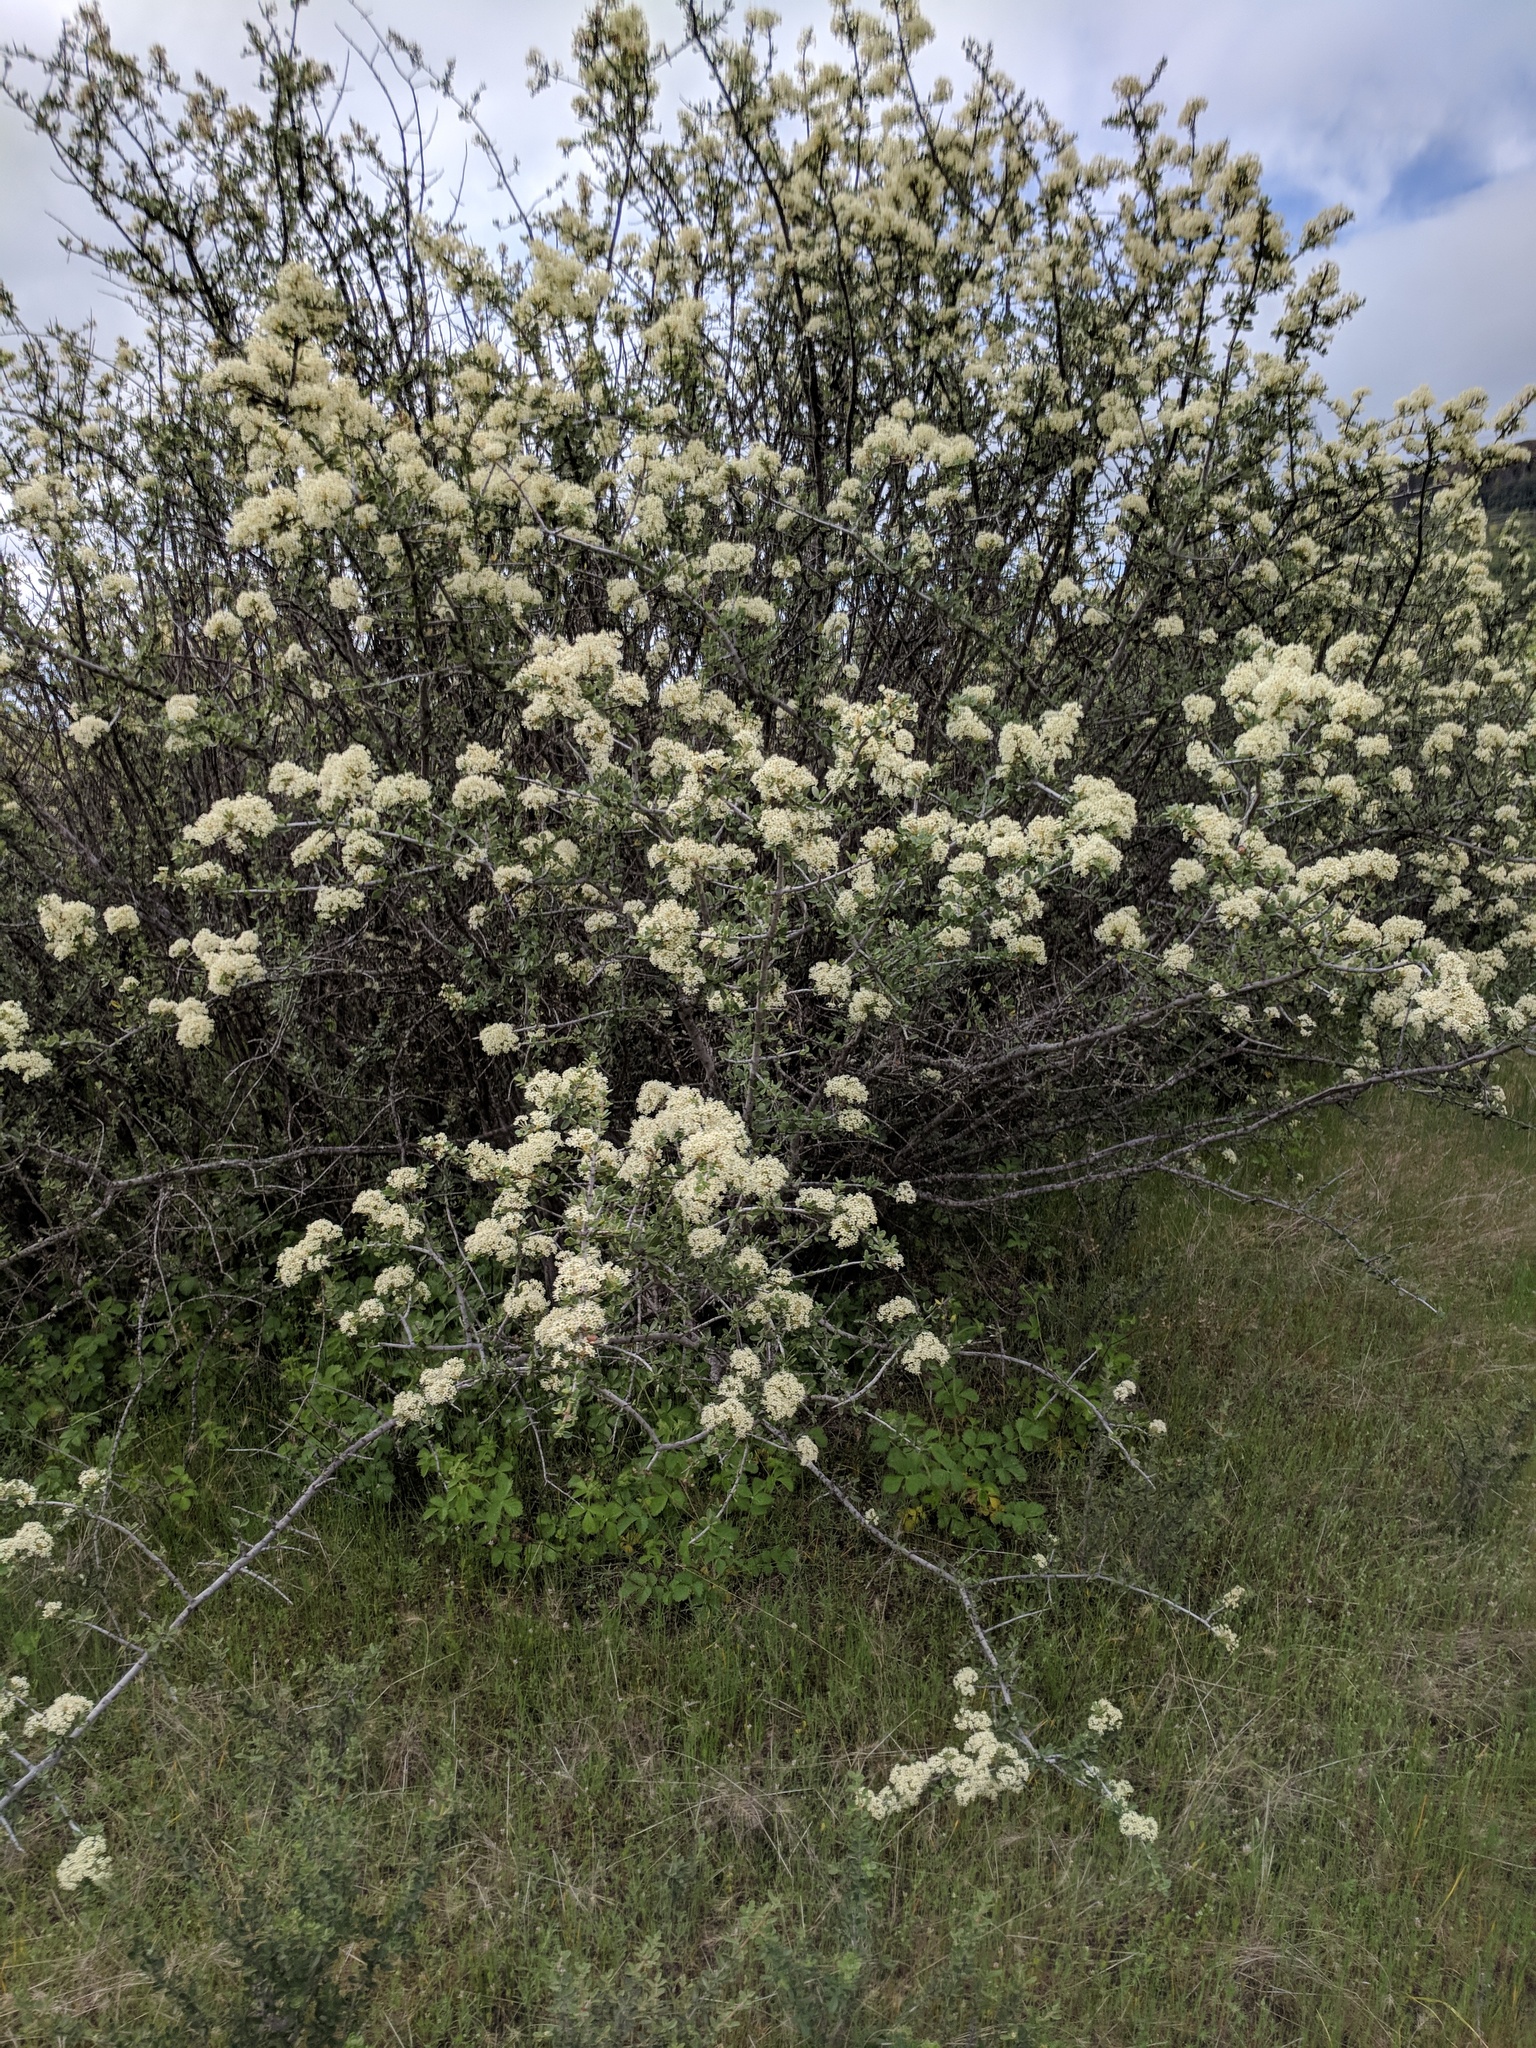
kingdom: Plantae
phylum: Tracheophyta
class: Magnoliopsida
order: Rosales
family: Rhamnaceae
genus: Ceanothus
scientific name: Ceanothus cuneatus
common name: Cuneate ceanothus
